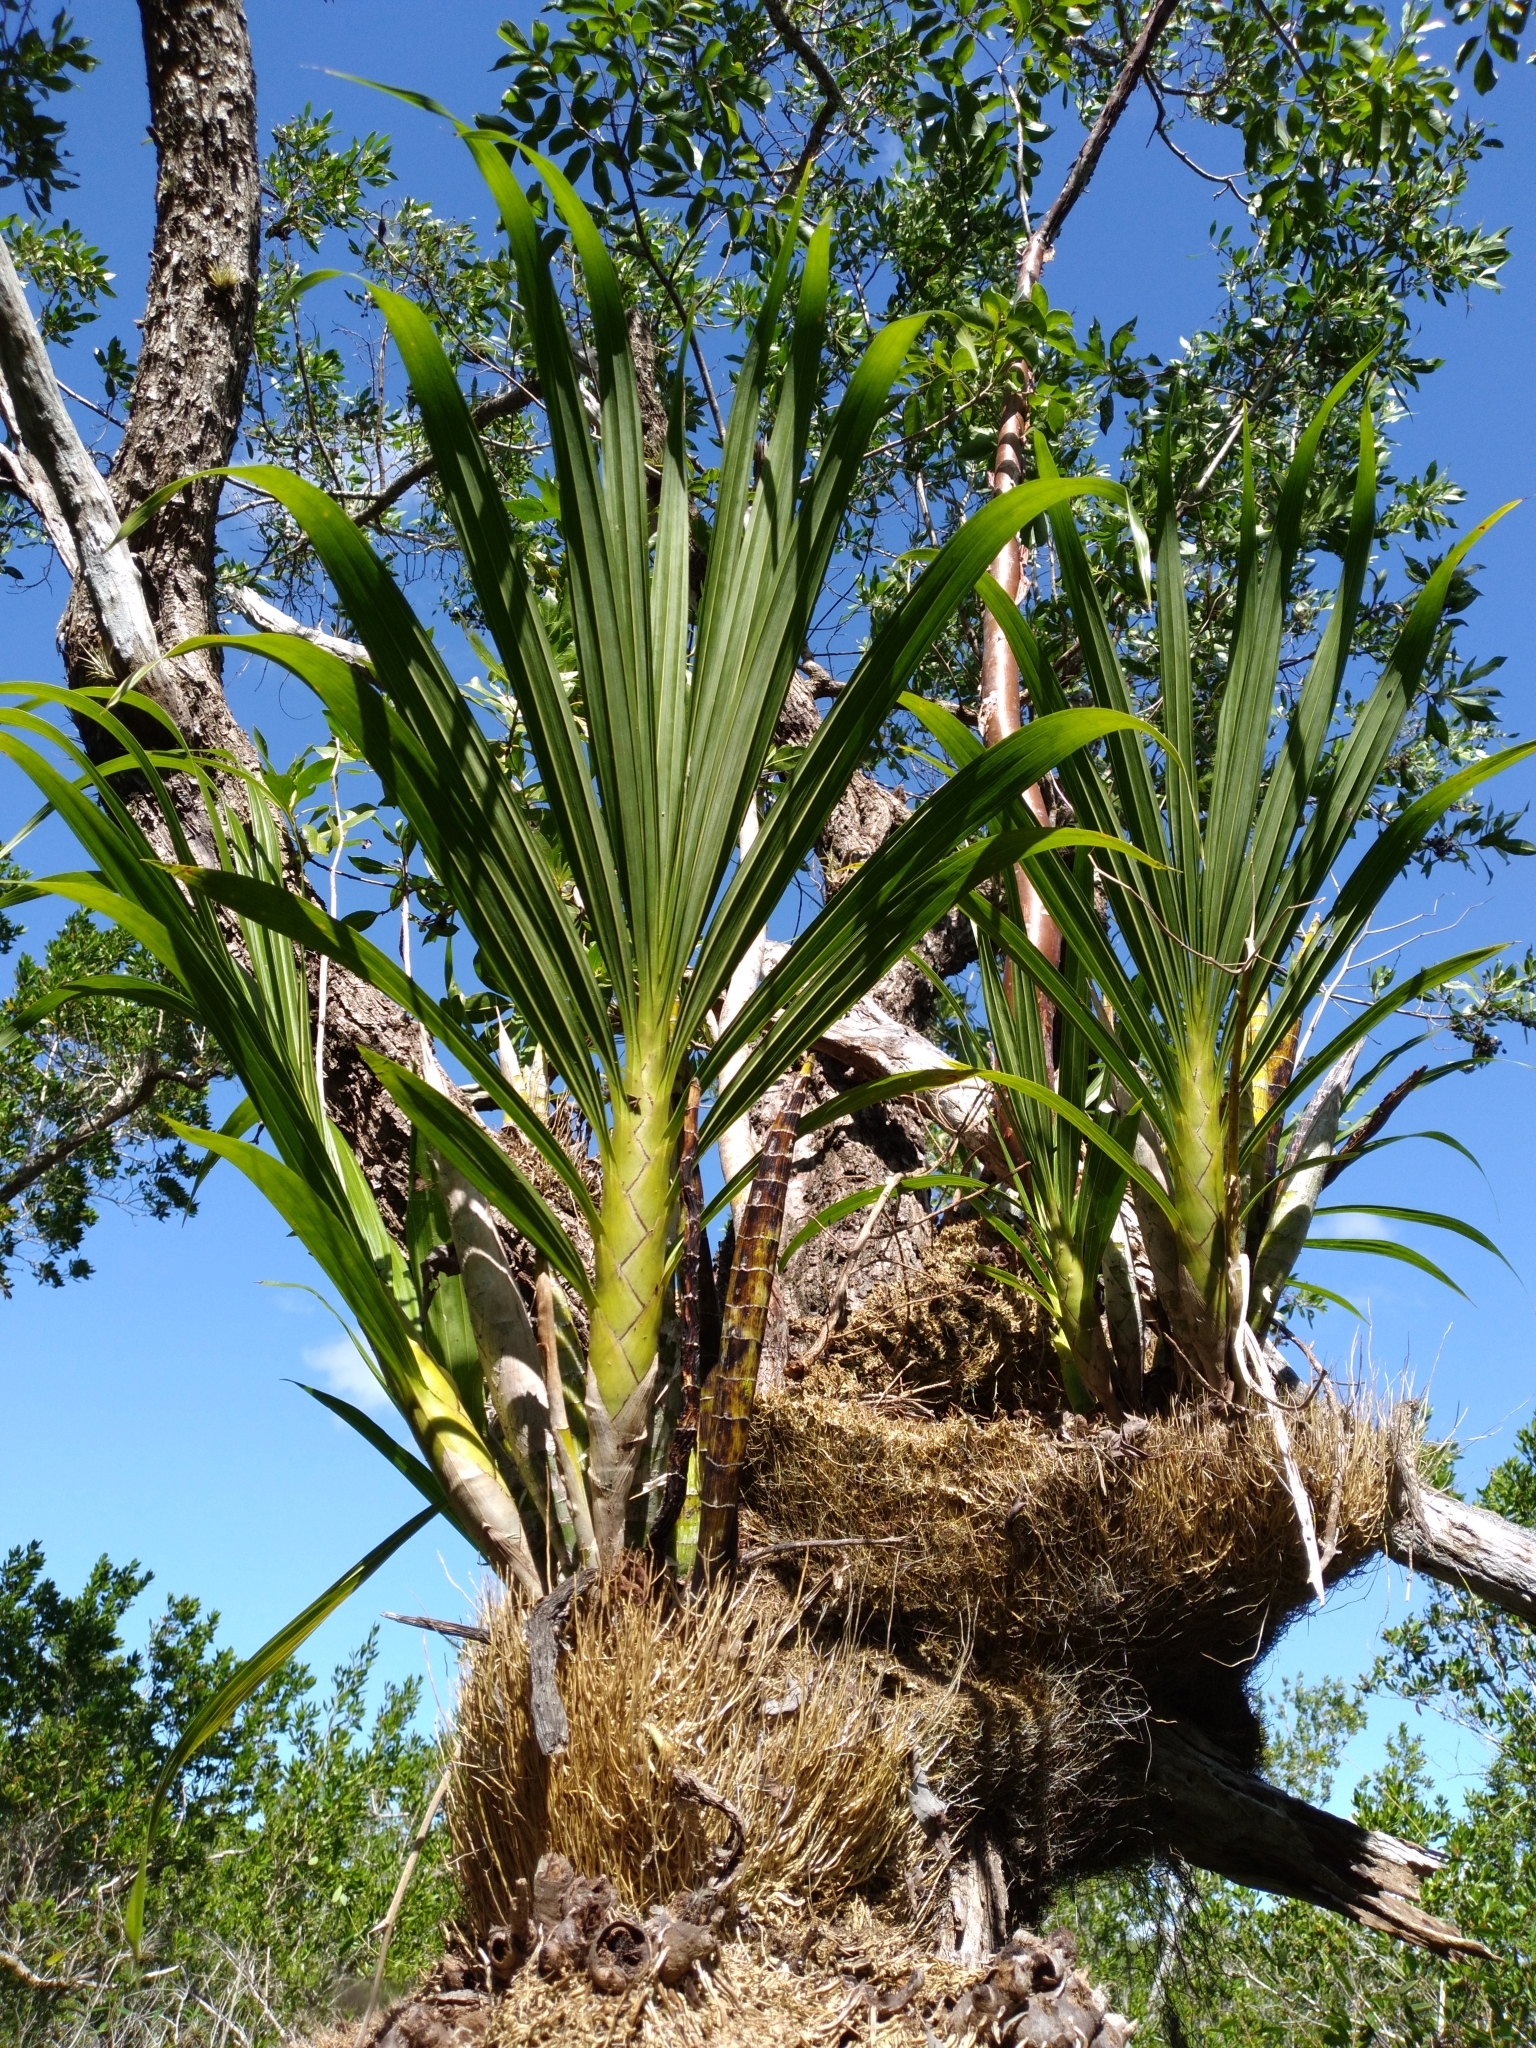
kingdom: Plantae
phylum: Tracheophyta
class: Liliopsida
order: Asparagales
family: Orchidaceae
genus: Cyrtopodium
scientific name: Cyrtopodium punctatum
